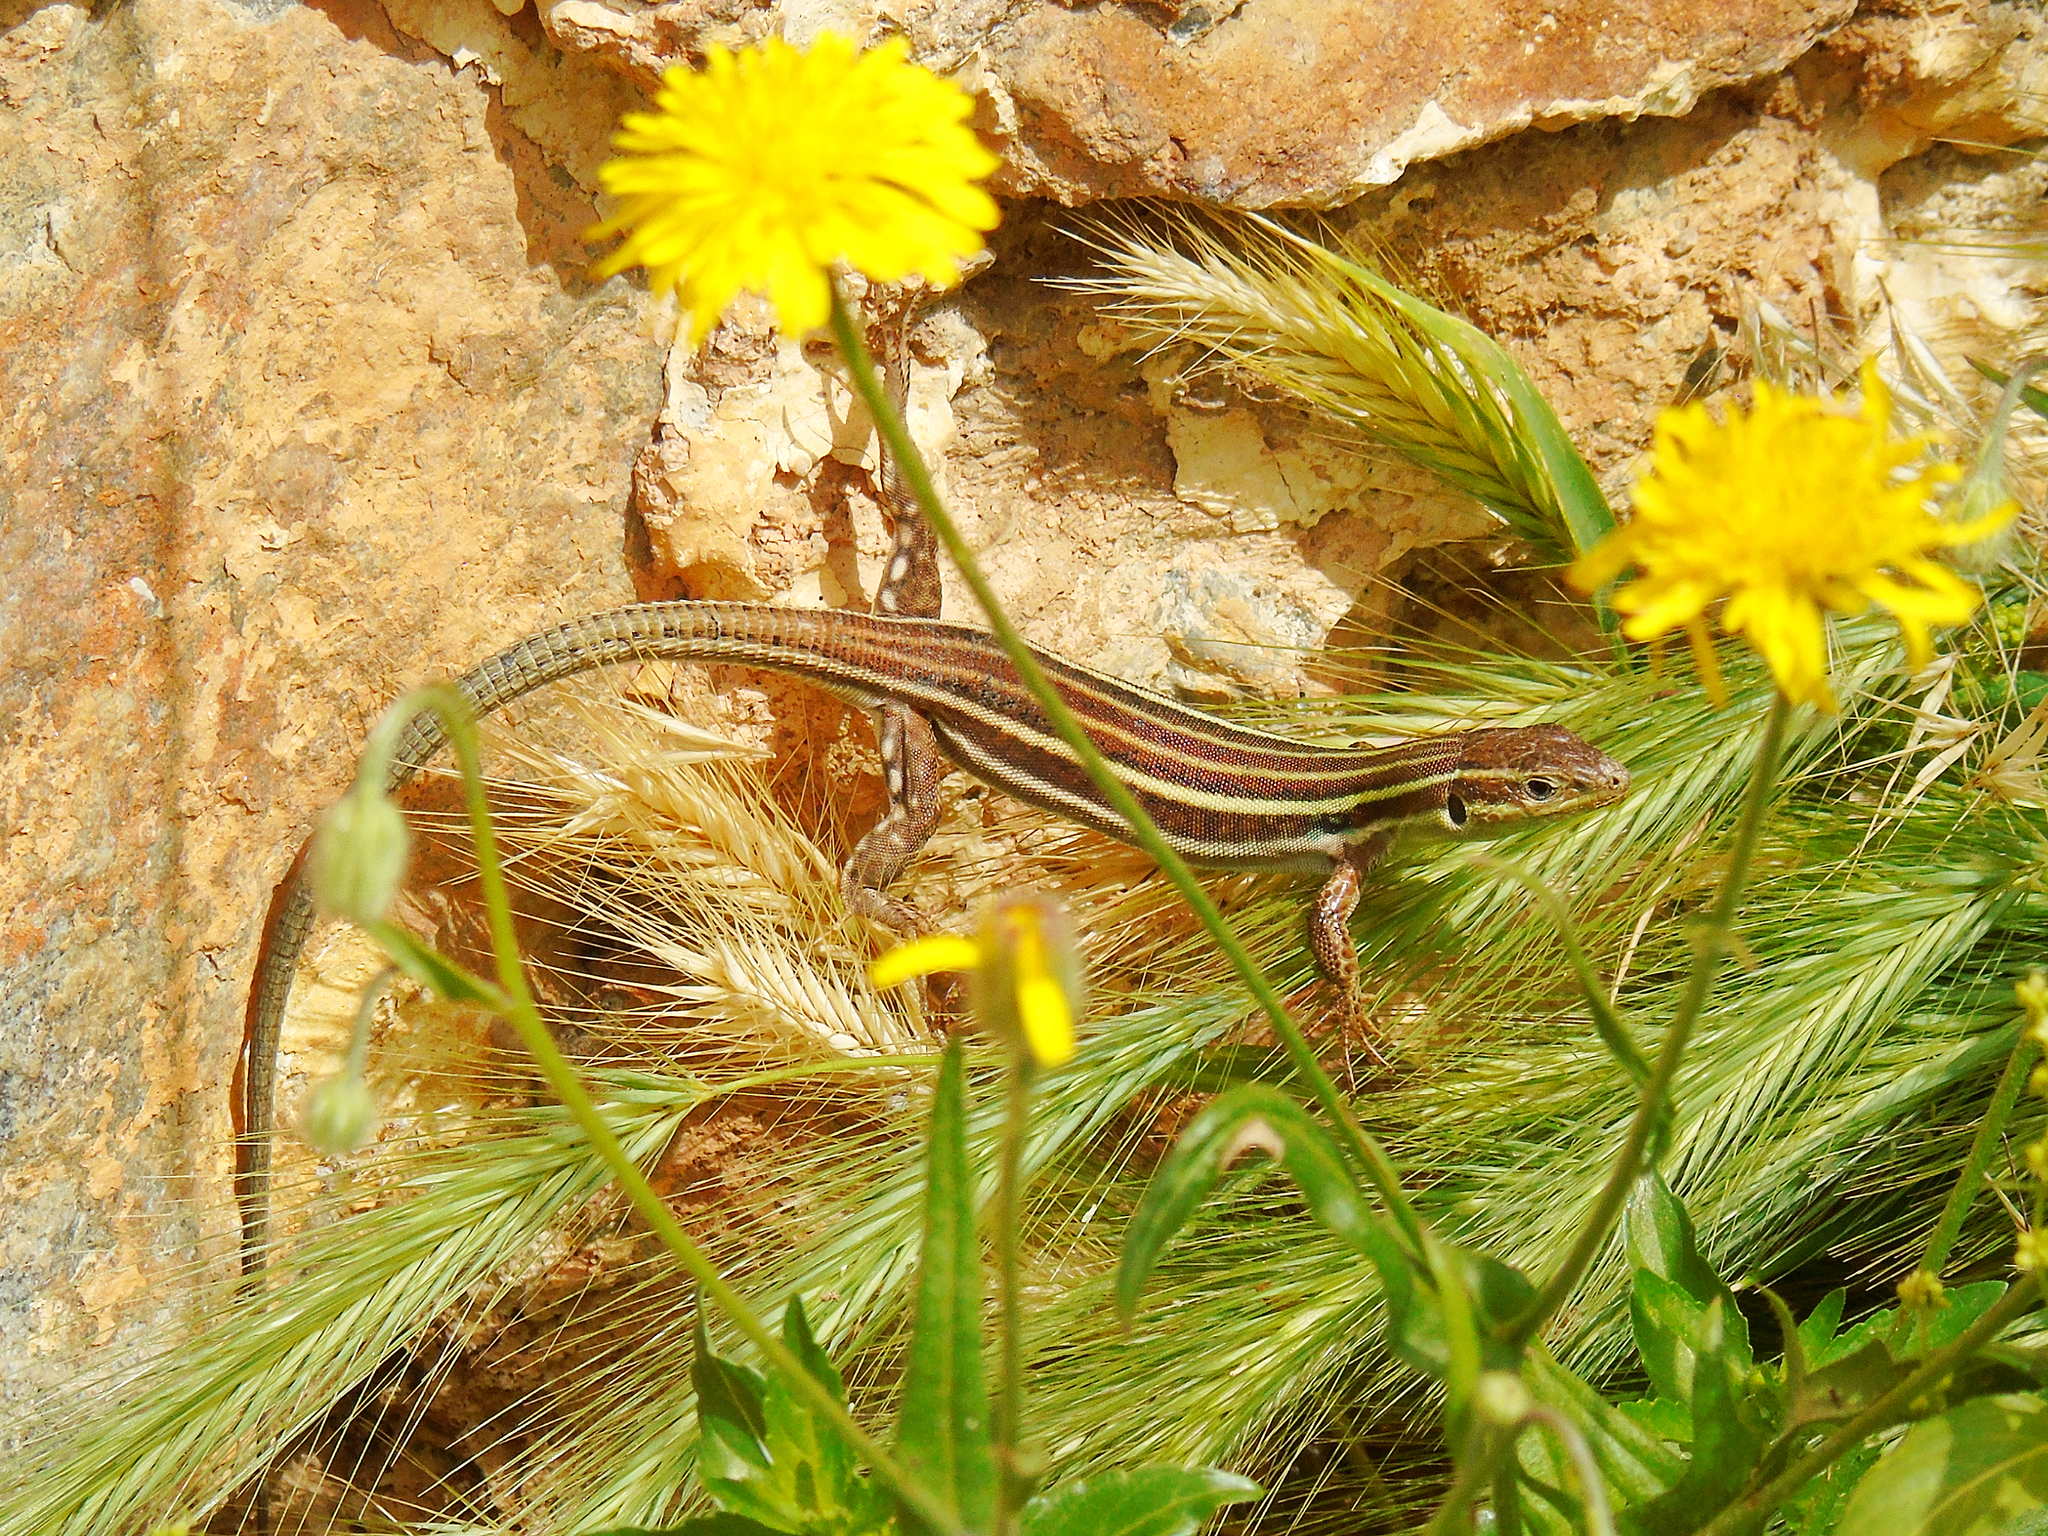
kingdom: Animalia
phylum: Chordata
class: Squamata
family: Lacertidae
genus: Podarcis
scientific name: Podarcis peloponnesiacus
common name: Peloponnese wall lizard
